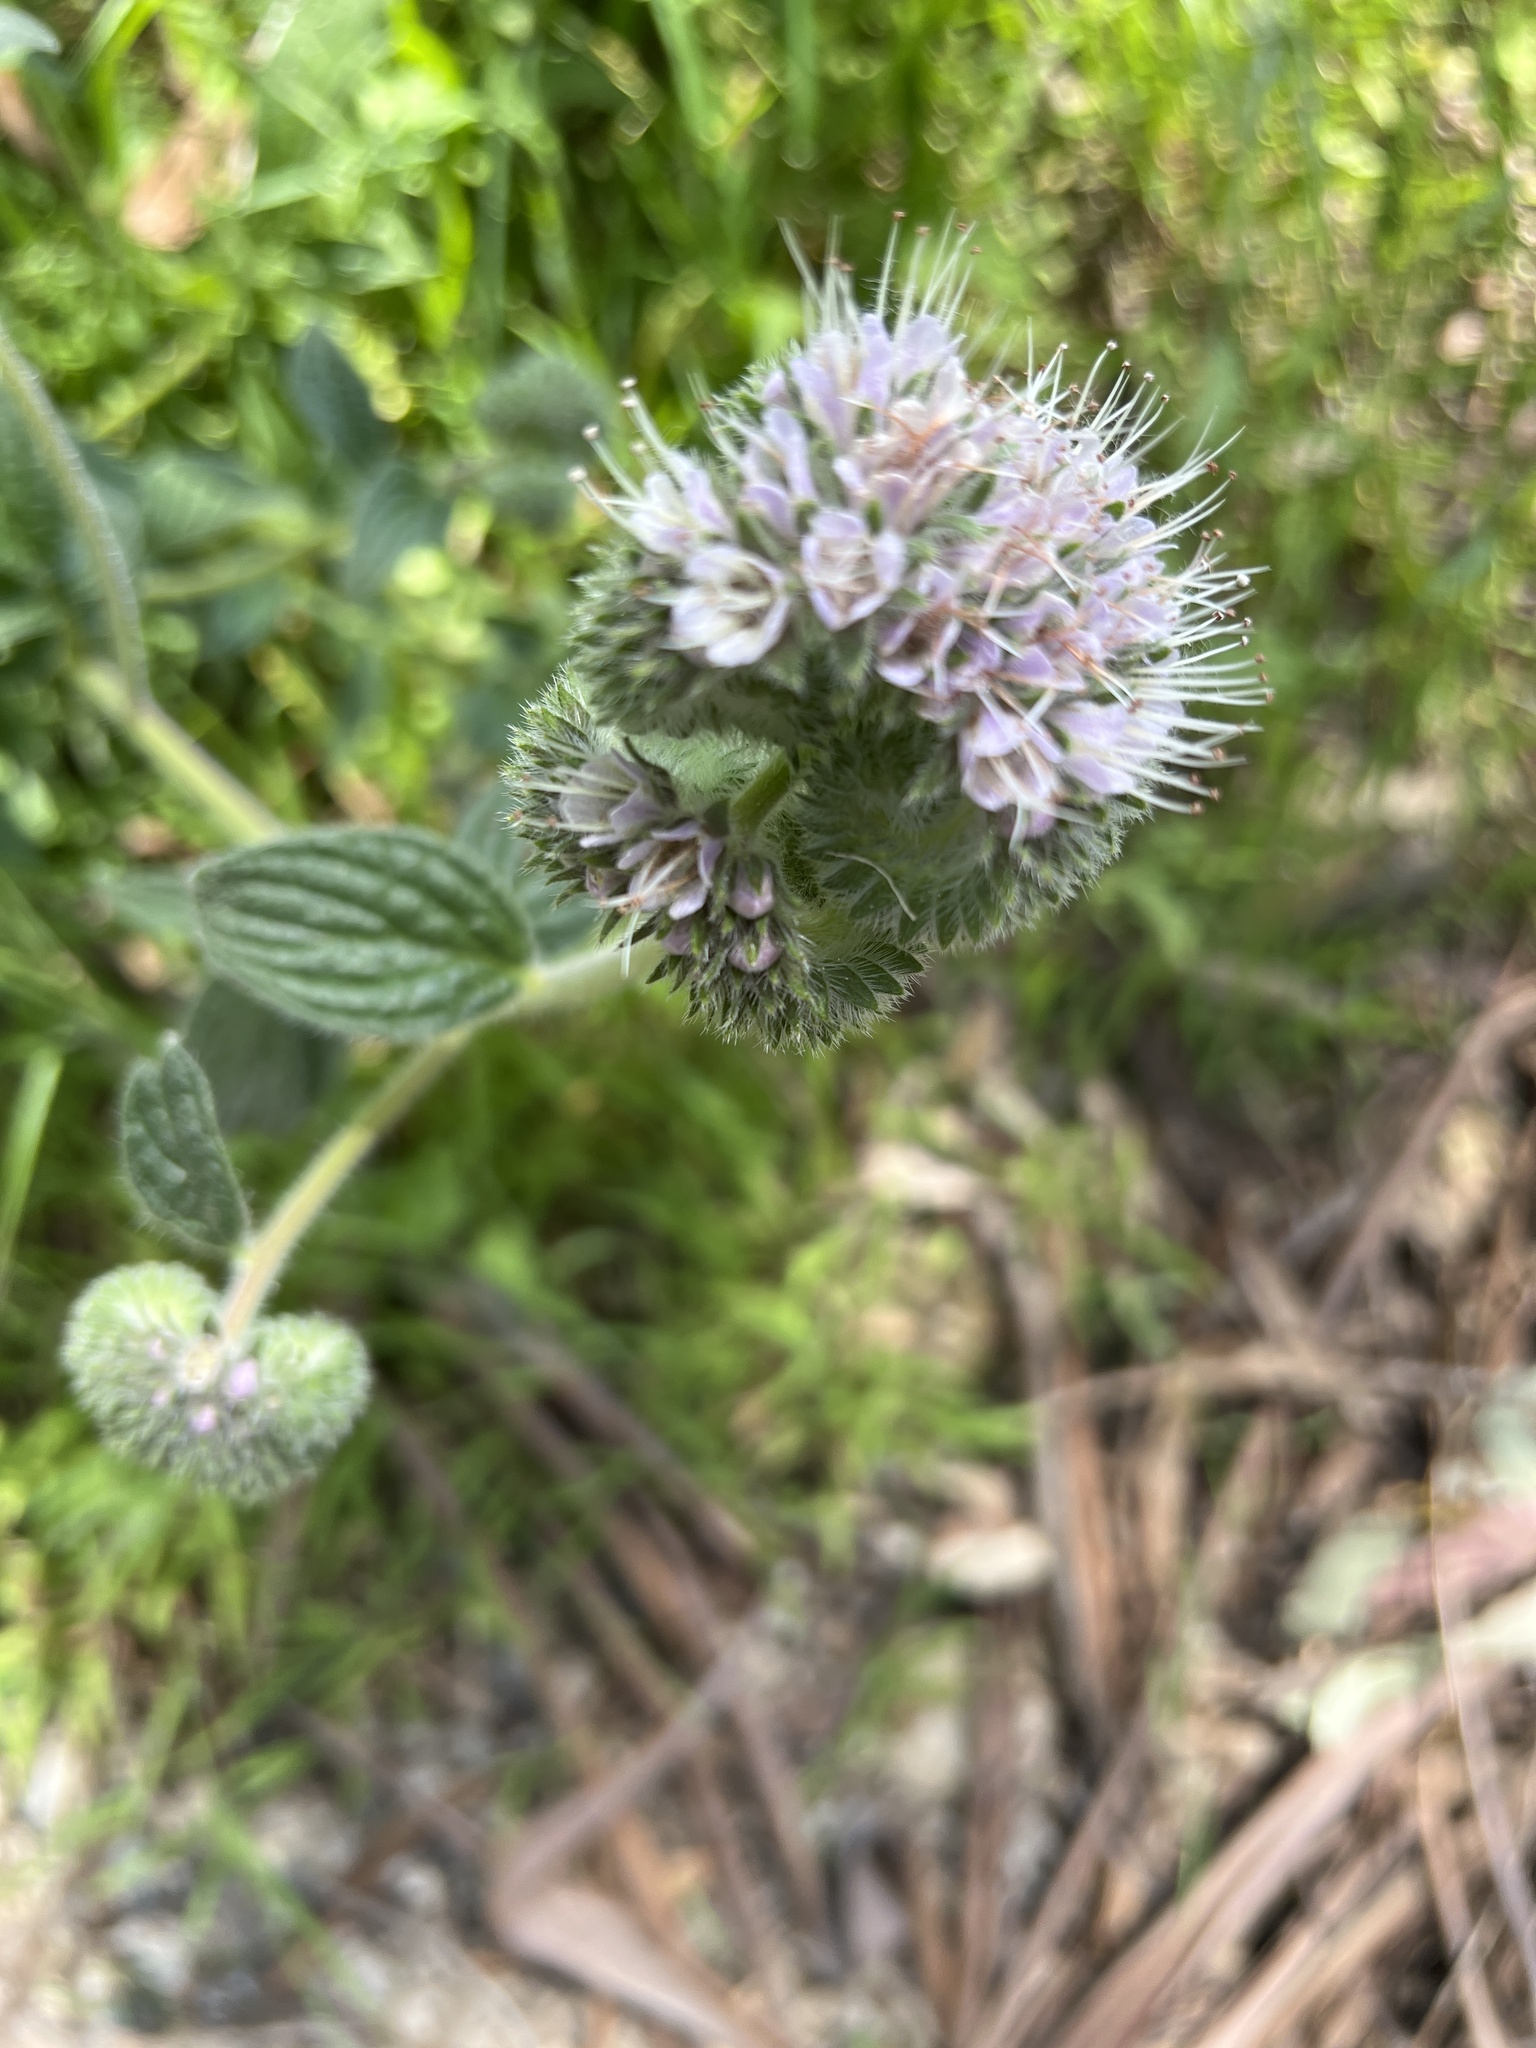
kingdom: Plantae
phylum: Tracheophyta
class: Magnoliopsida
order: Boraginales
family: Hydrophyllaceae
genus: Phacelia
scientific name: Phacelia californica
